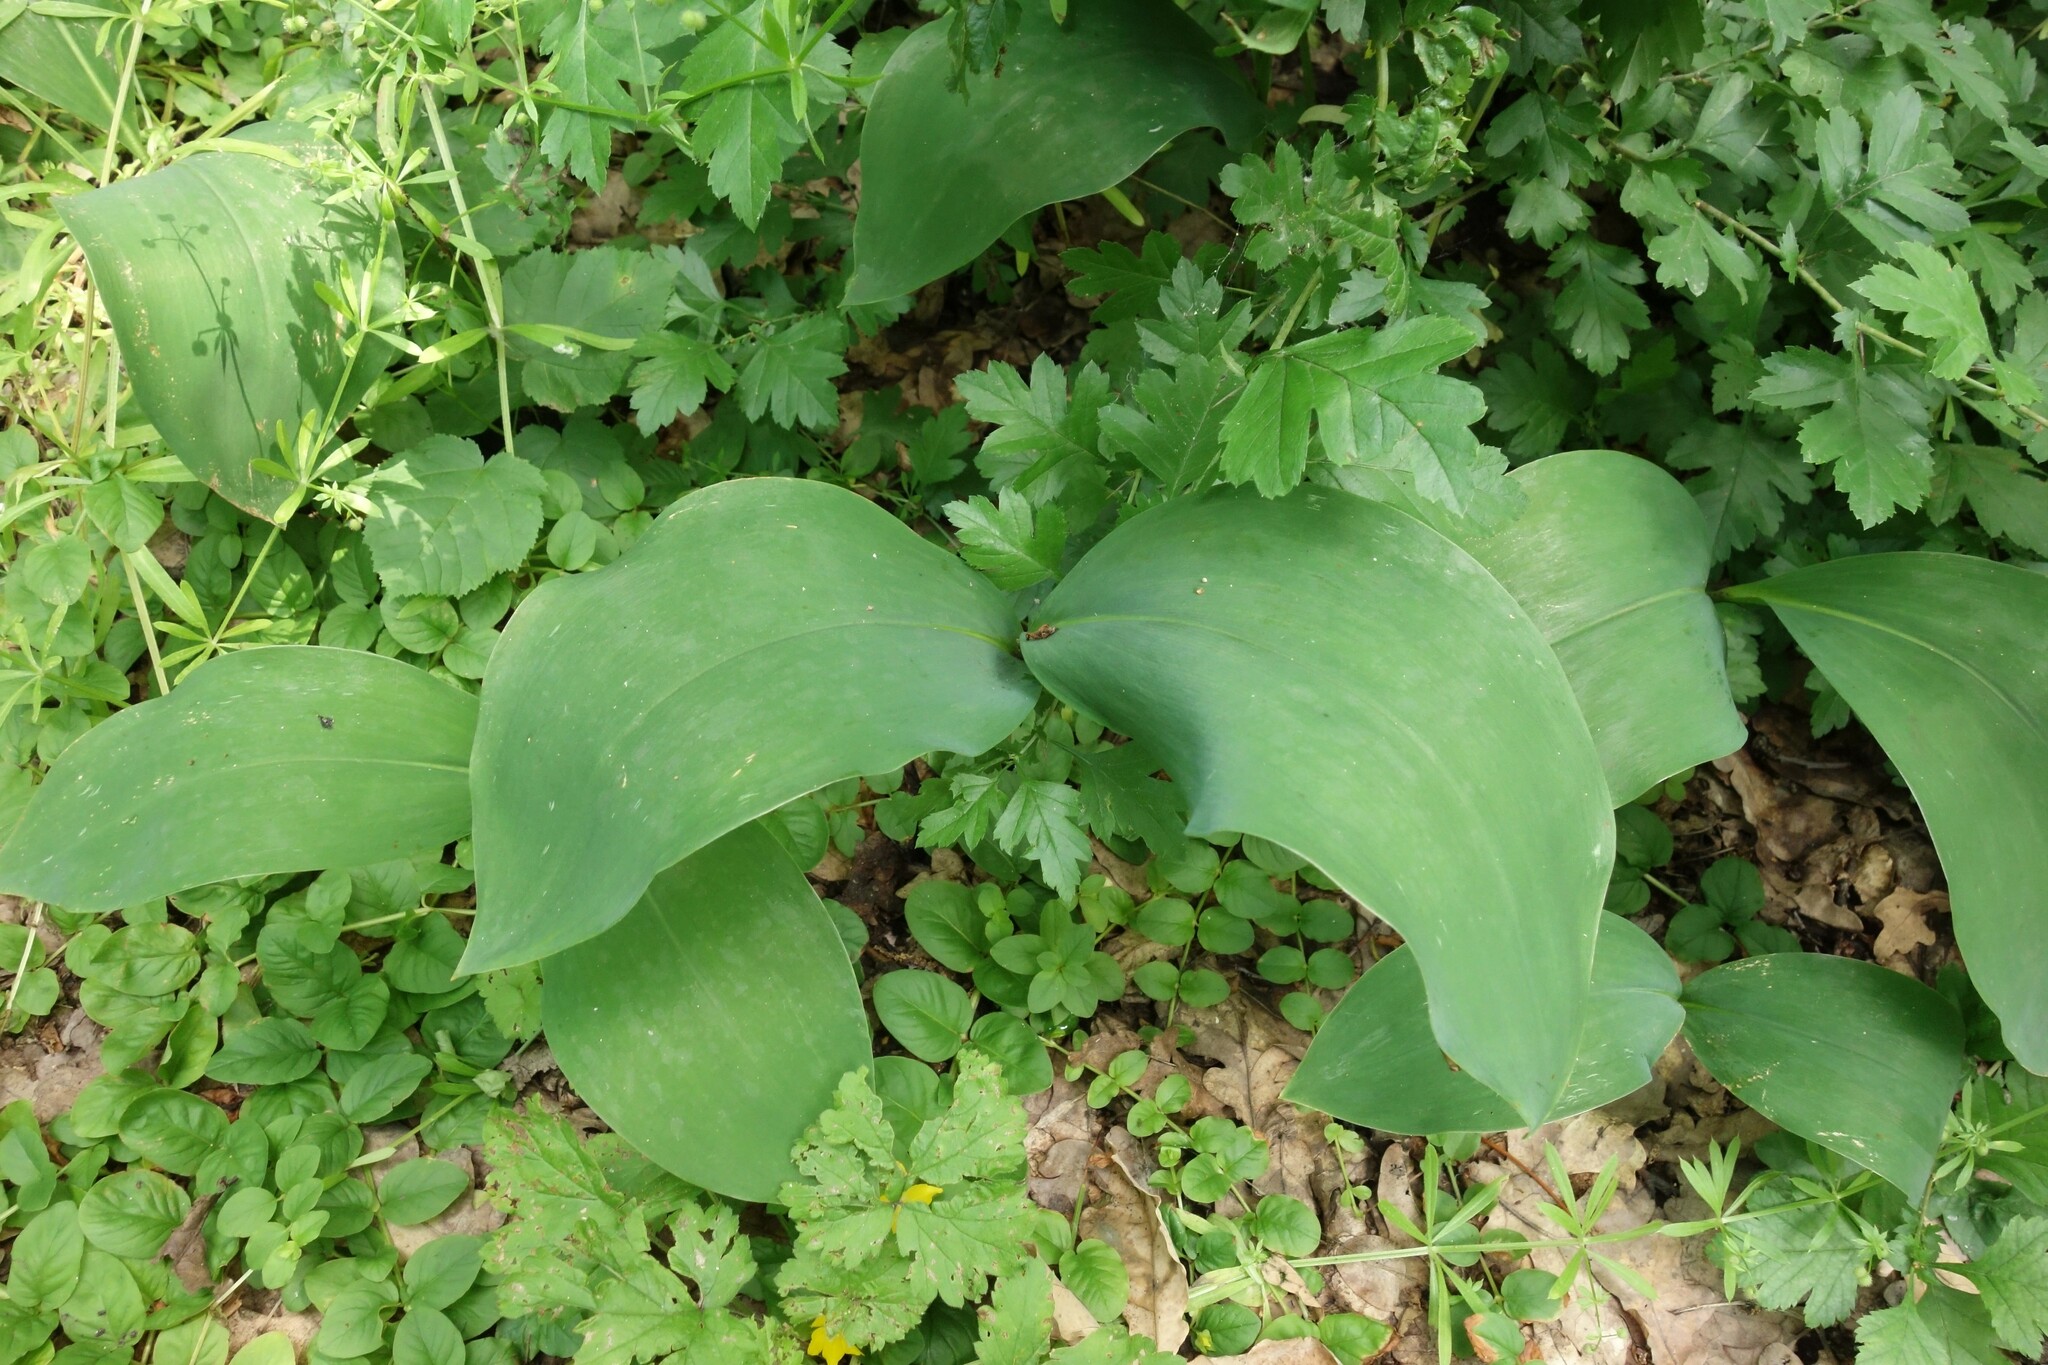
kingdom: Plantae
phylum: Tracheophyta
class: Liliopsida
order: Asparagales
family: Asparagaceae
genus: Convallaria
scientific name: Convallaria majalis
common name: Lily-of-the-valley
